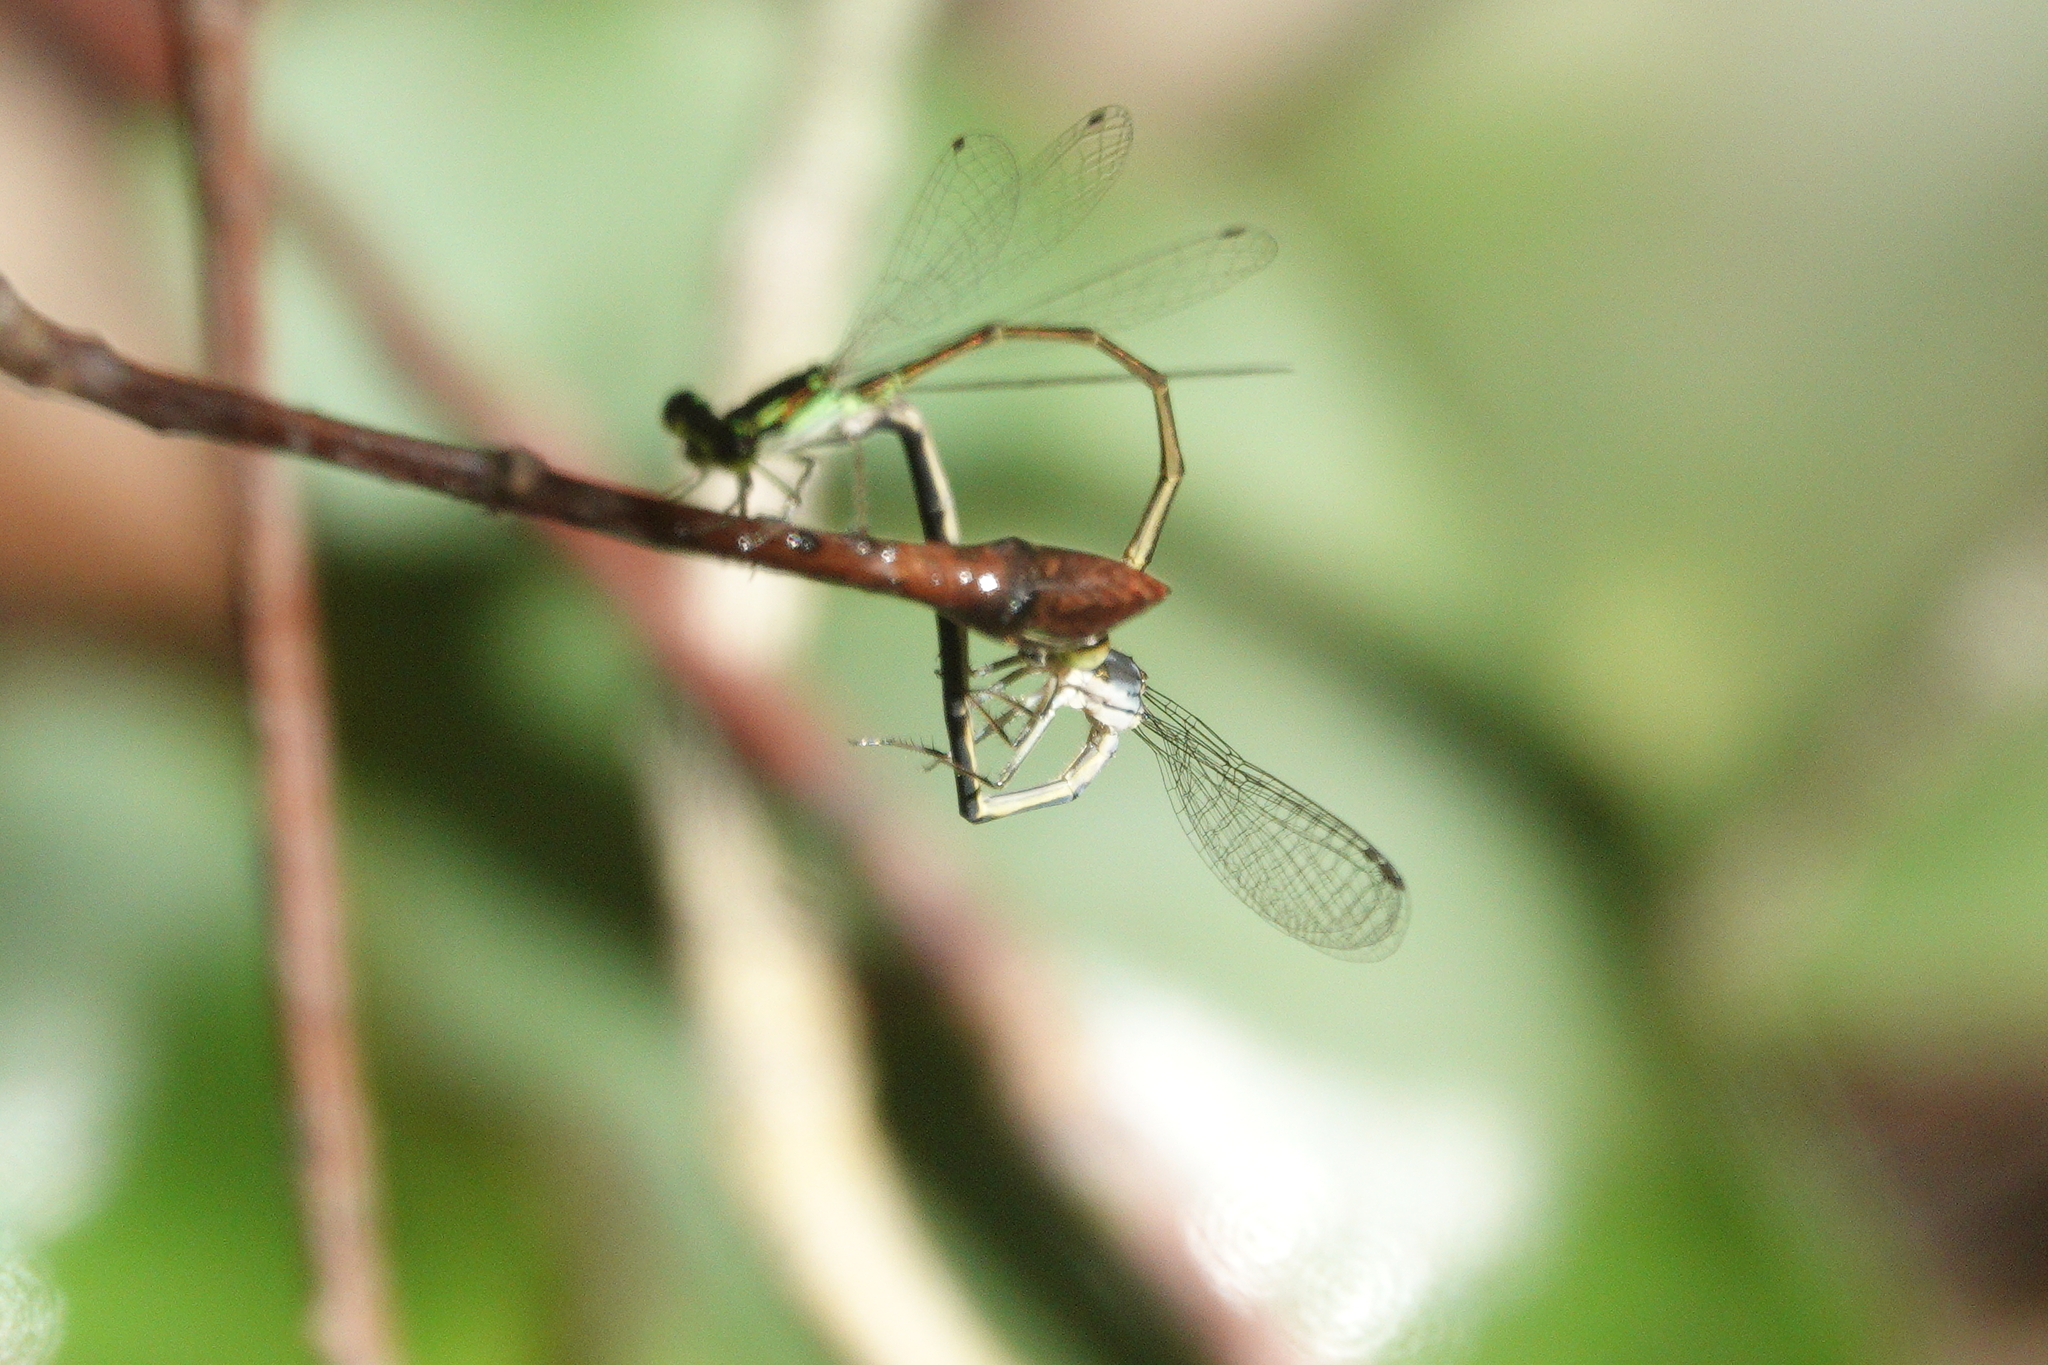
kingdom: Animalia
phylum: Arthropoda
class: Insecta
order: Odonata
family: Coenagrionidae
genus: Ischnura
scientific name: Ischnura posita
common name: Fragile forktail
